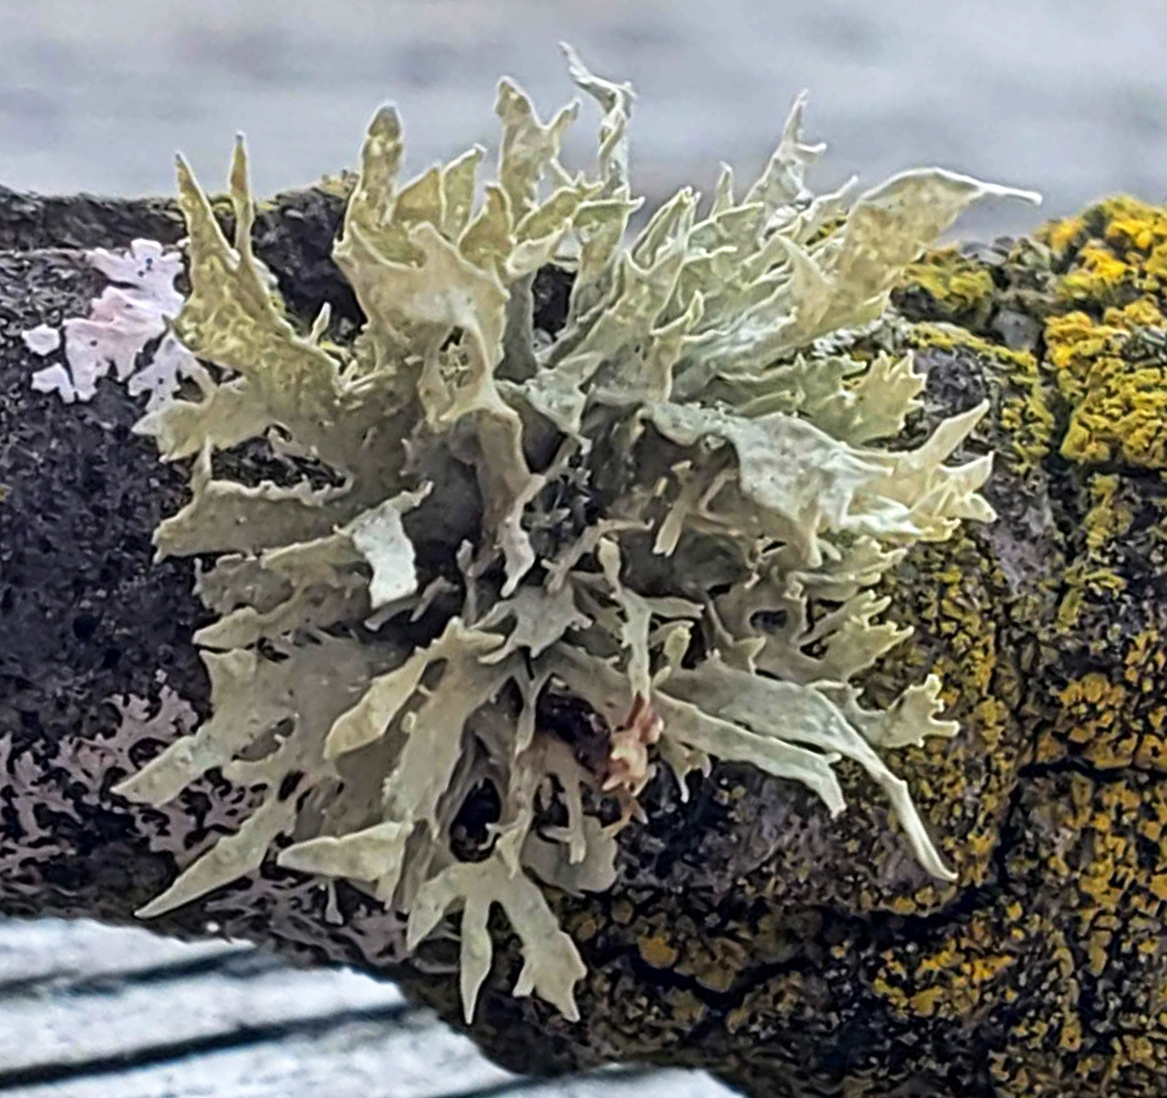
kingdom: Fungi
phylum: Ascomycota
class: Lecanoromycetes
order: Lecanorales
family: Ramalinaceae
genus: Ramalina
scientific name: Ramalina americana
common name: Sinewed bush lichen
